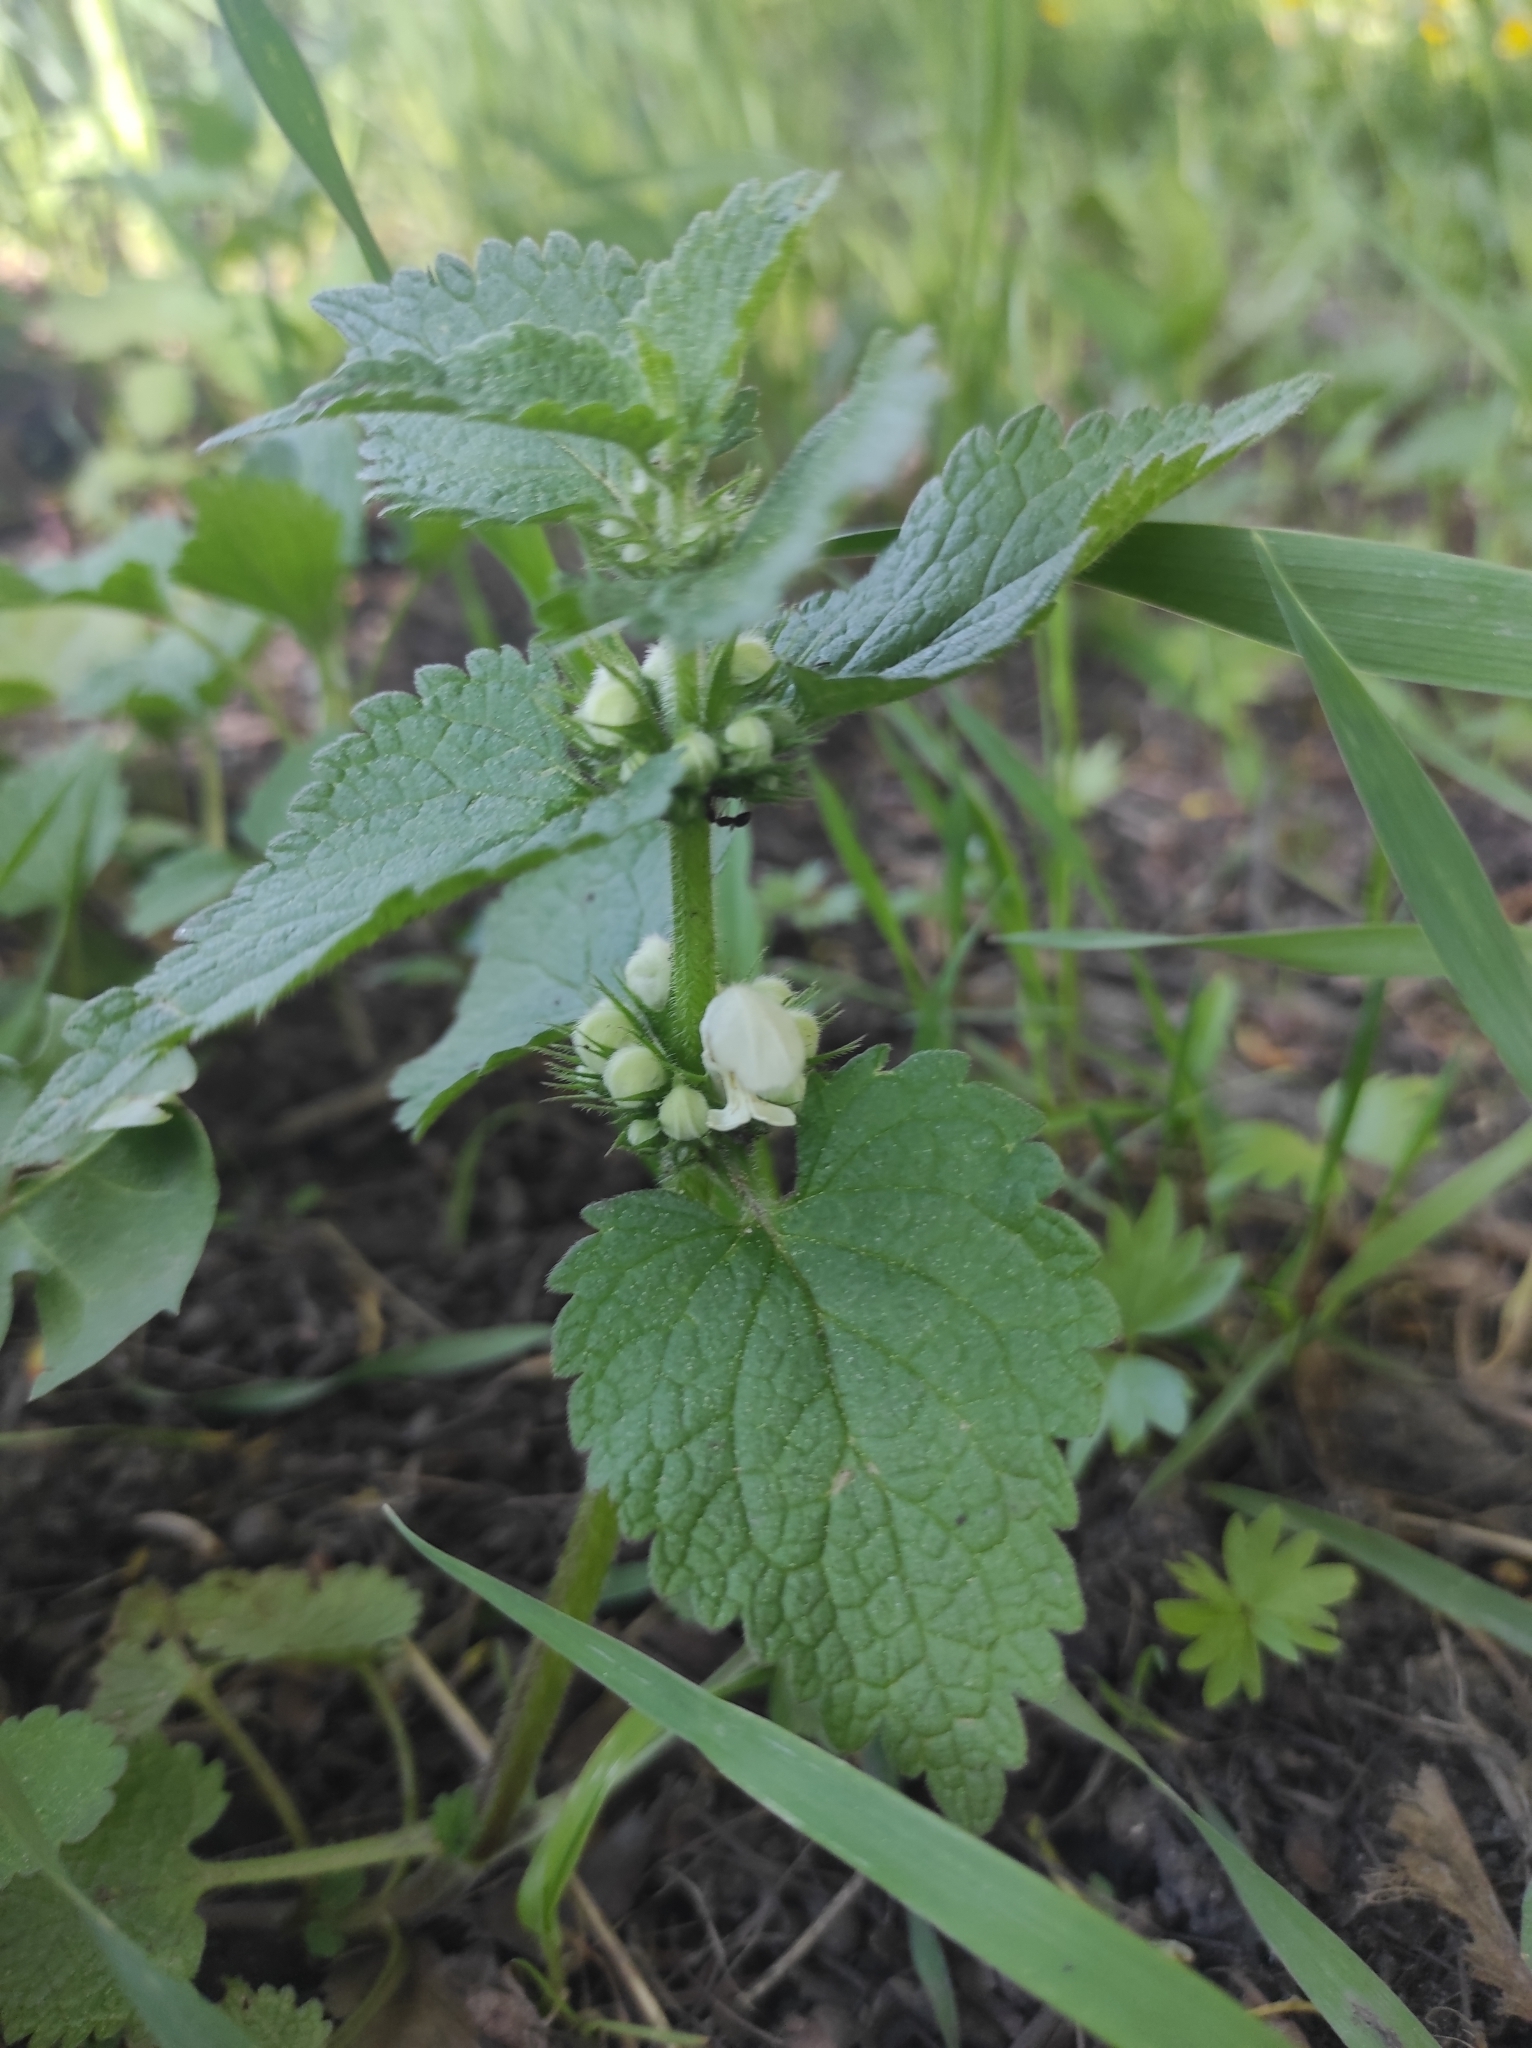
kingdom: Plantae
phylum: Tracheophyta
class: Magnoliopsida
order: Lamiales
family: Lamiaceae
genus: Lamium
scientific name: Lamium album
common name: White dead-nettle
